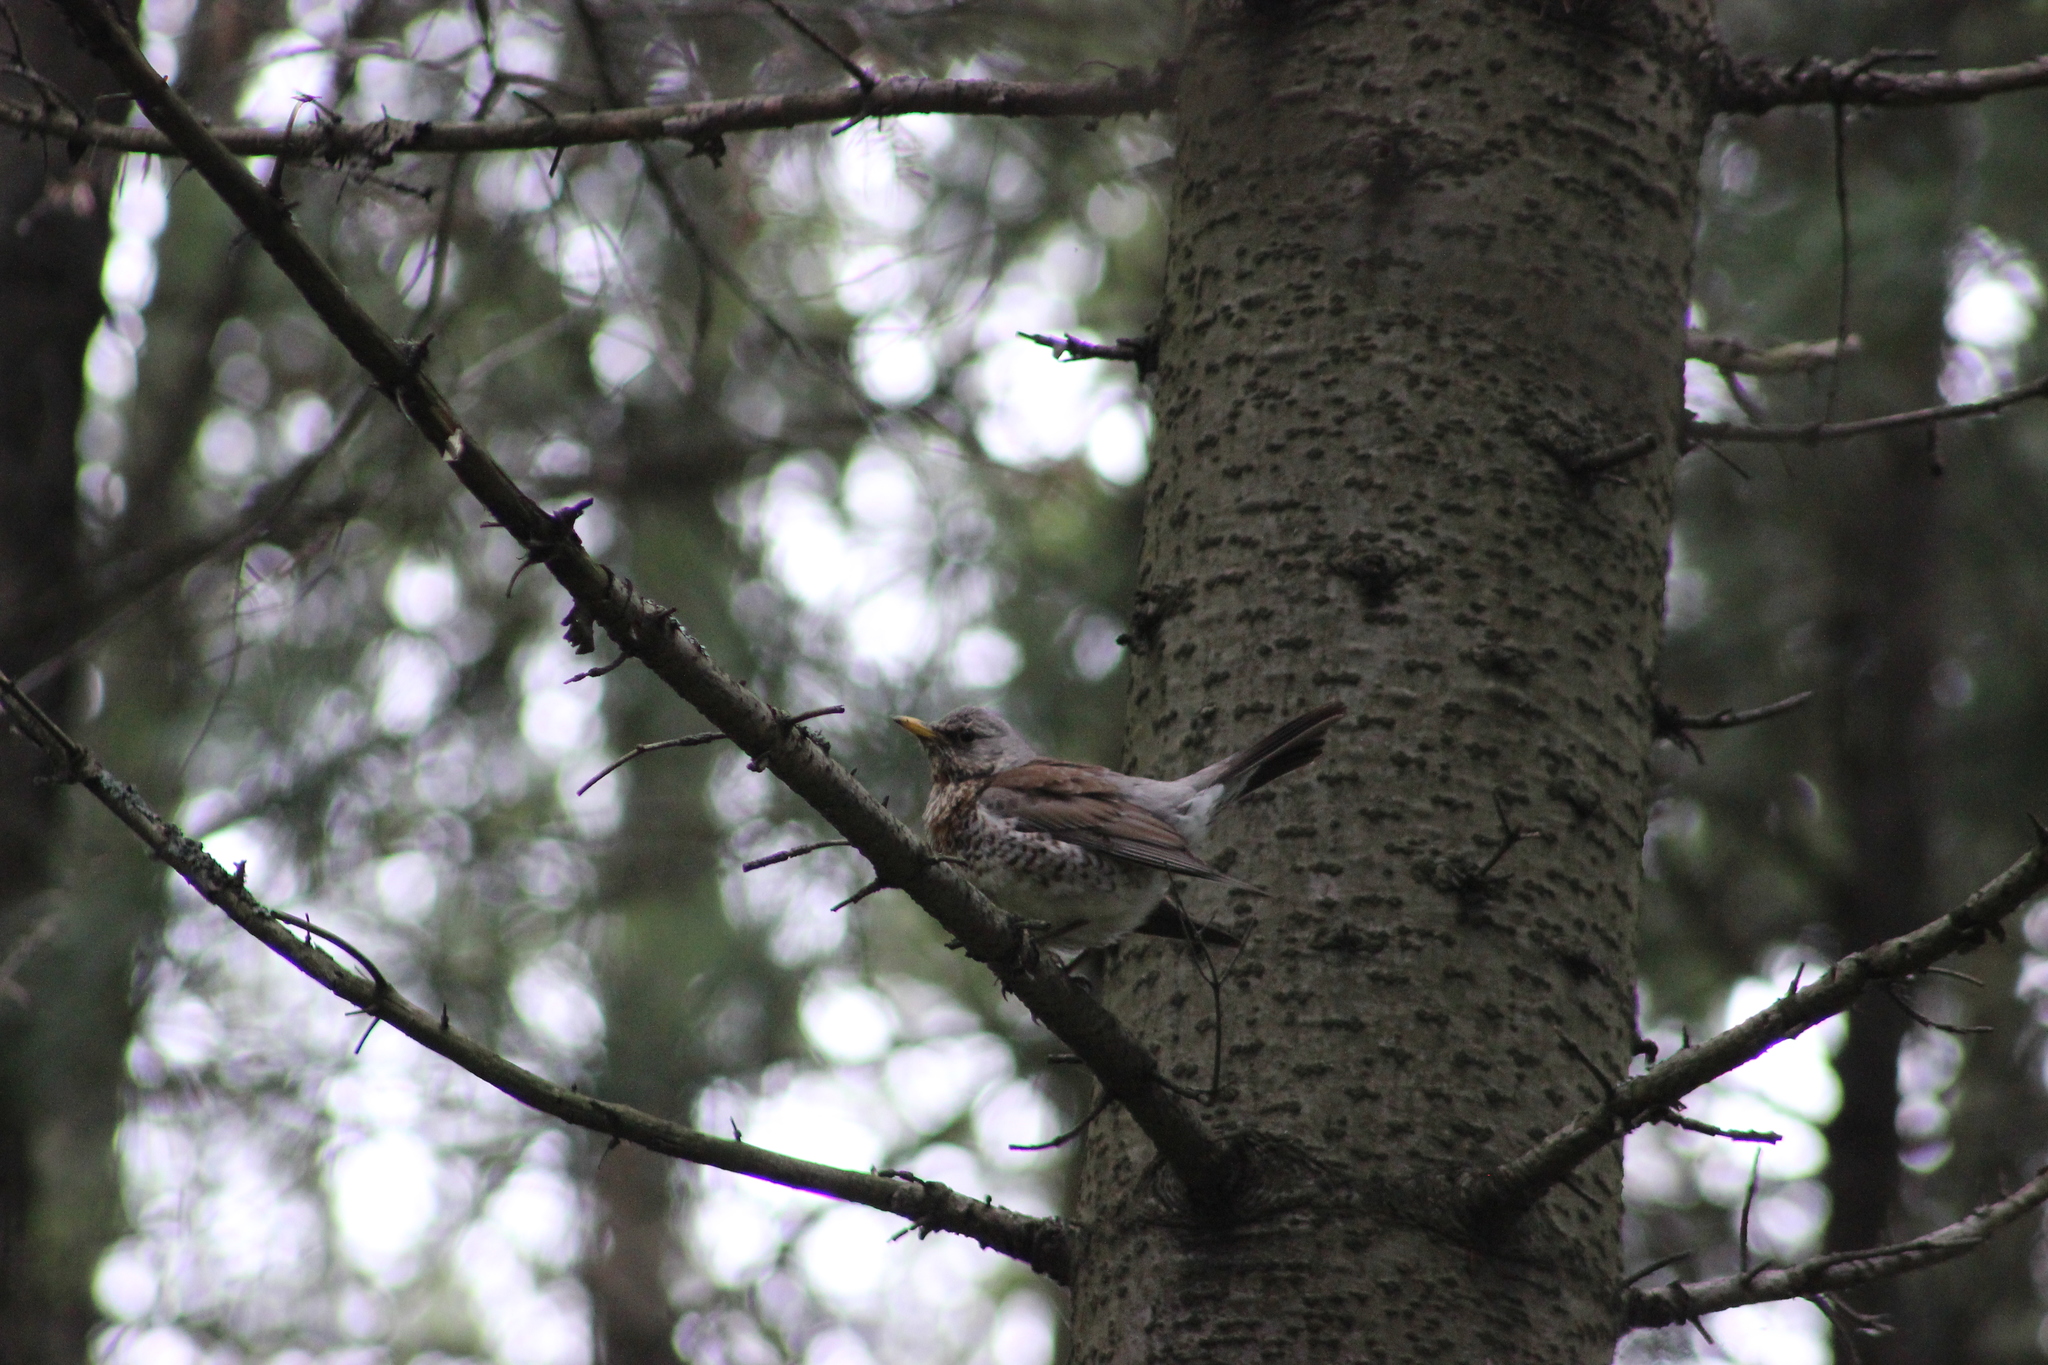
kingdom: Animalia
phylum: Chordata
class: Aves
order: Passeriformes
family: Turdidae
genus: Turdus
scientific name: Turdus pilaris
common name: Fieldfare
